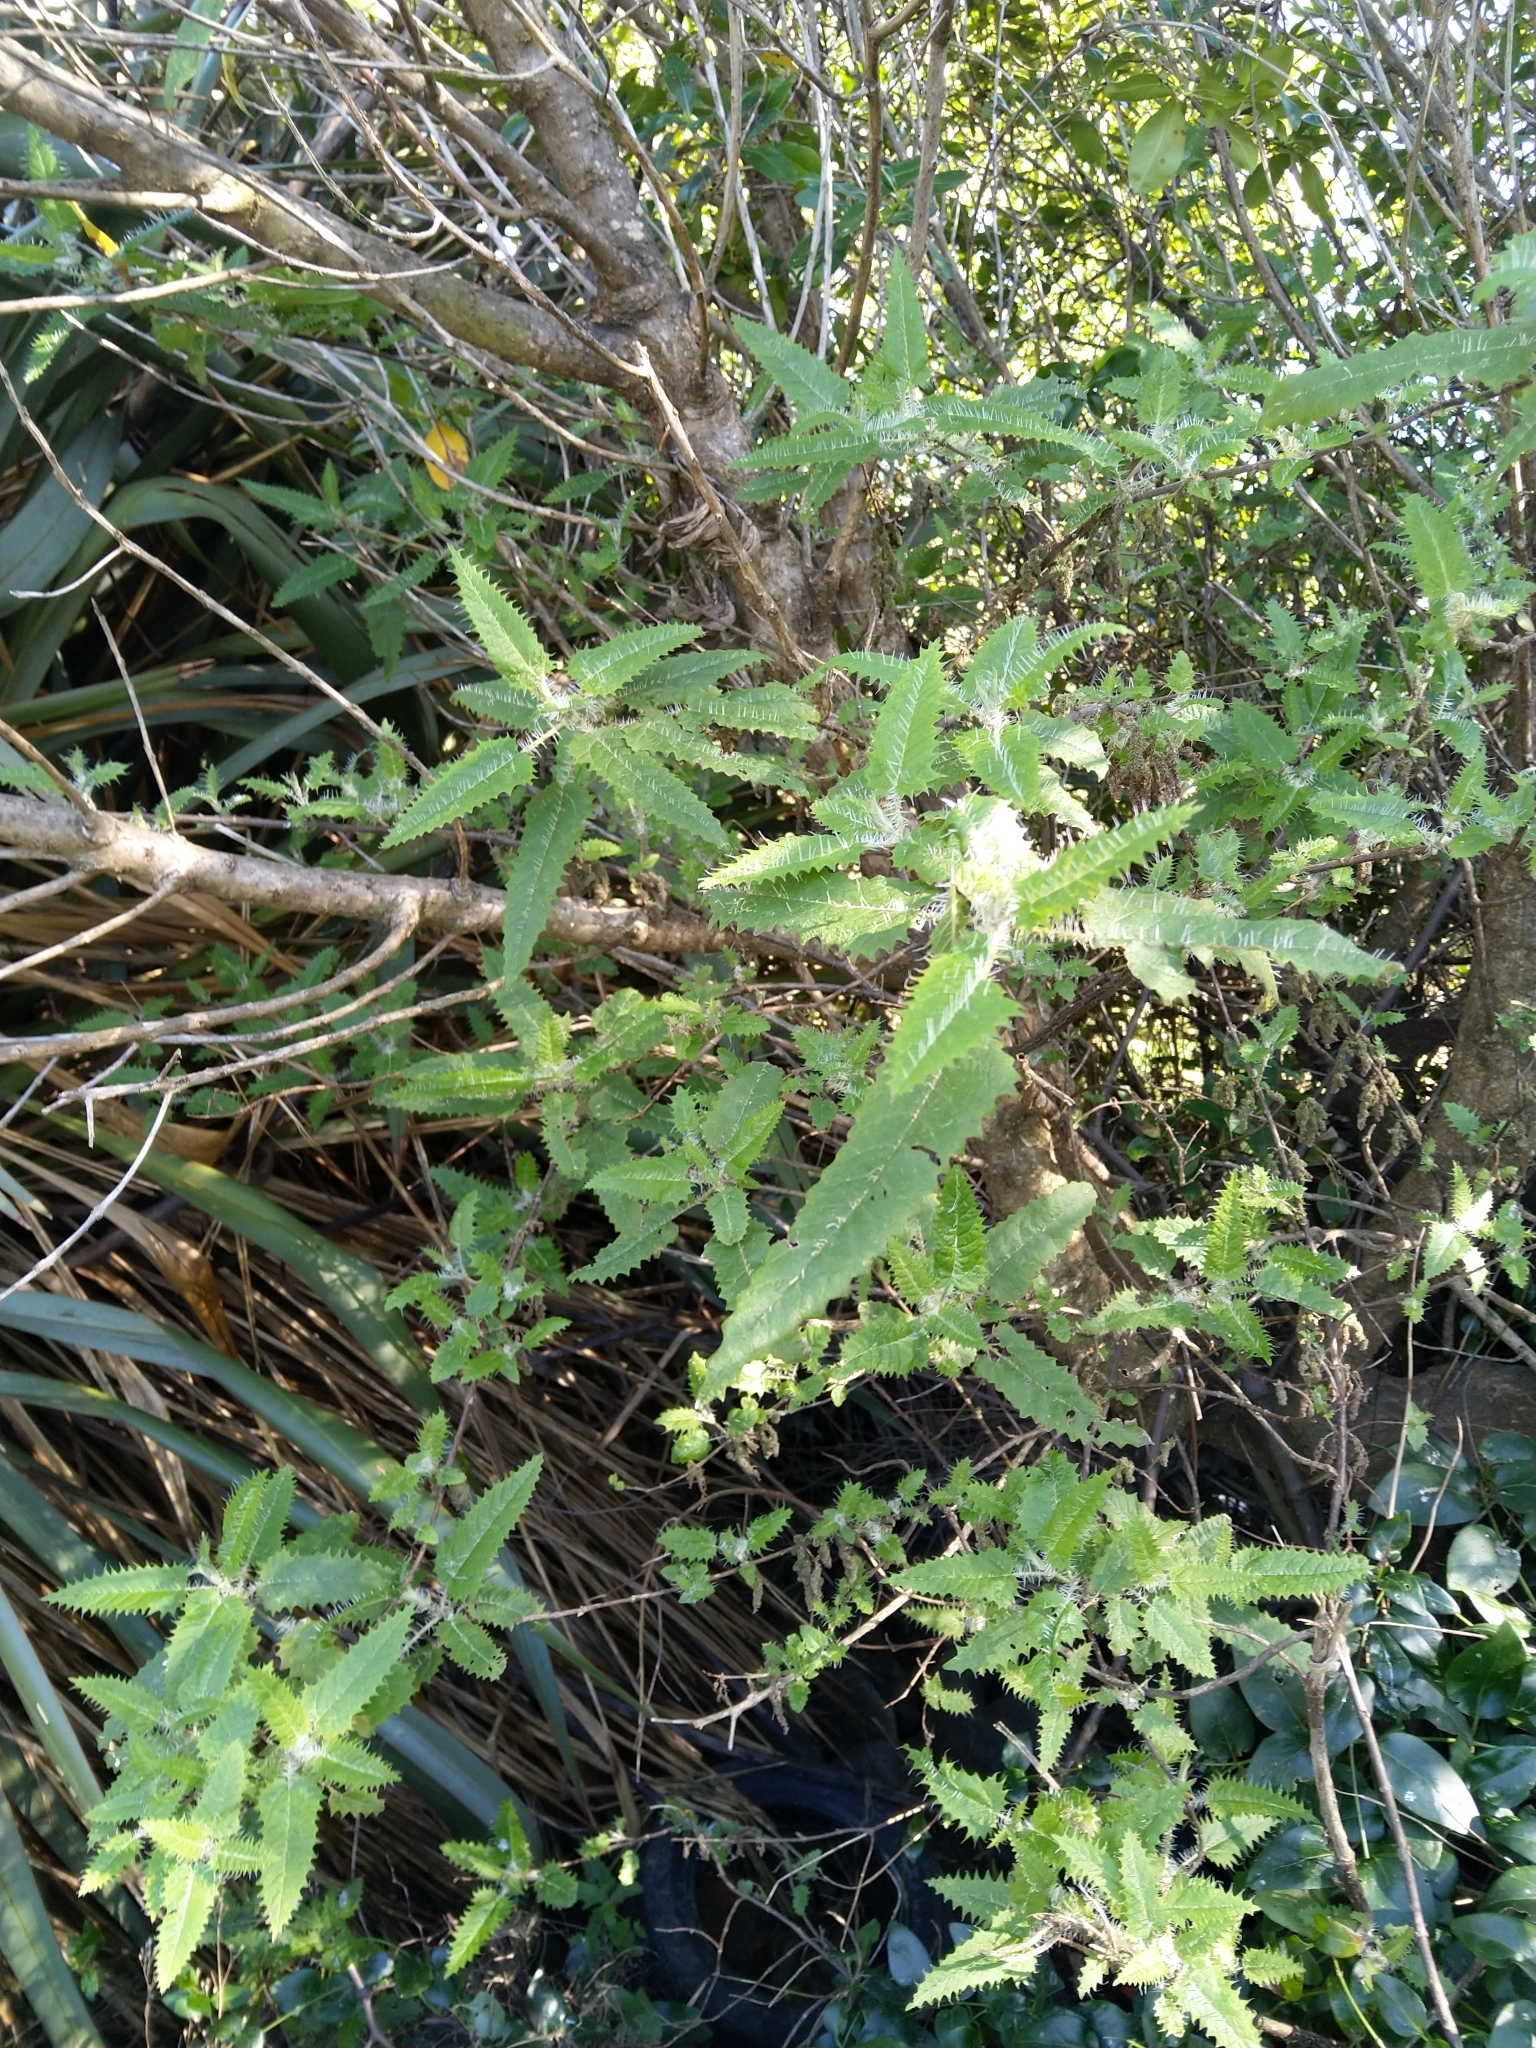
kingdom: Plantae
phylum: Tracheophyta
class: Magnoliopsida
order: Rosales
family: Urticaceae
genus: Urtica
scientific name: Urtica ferox
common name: Tree nettle
